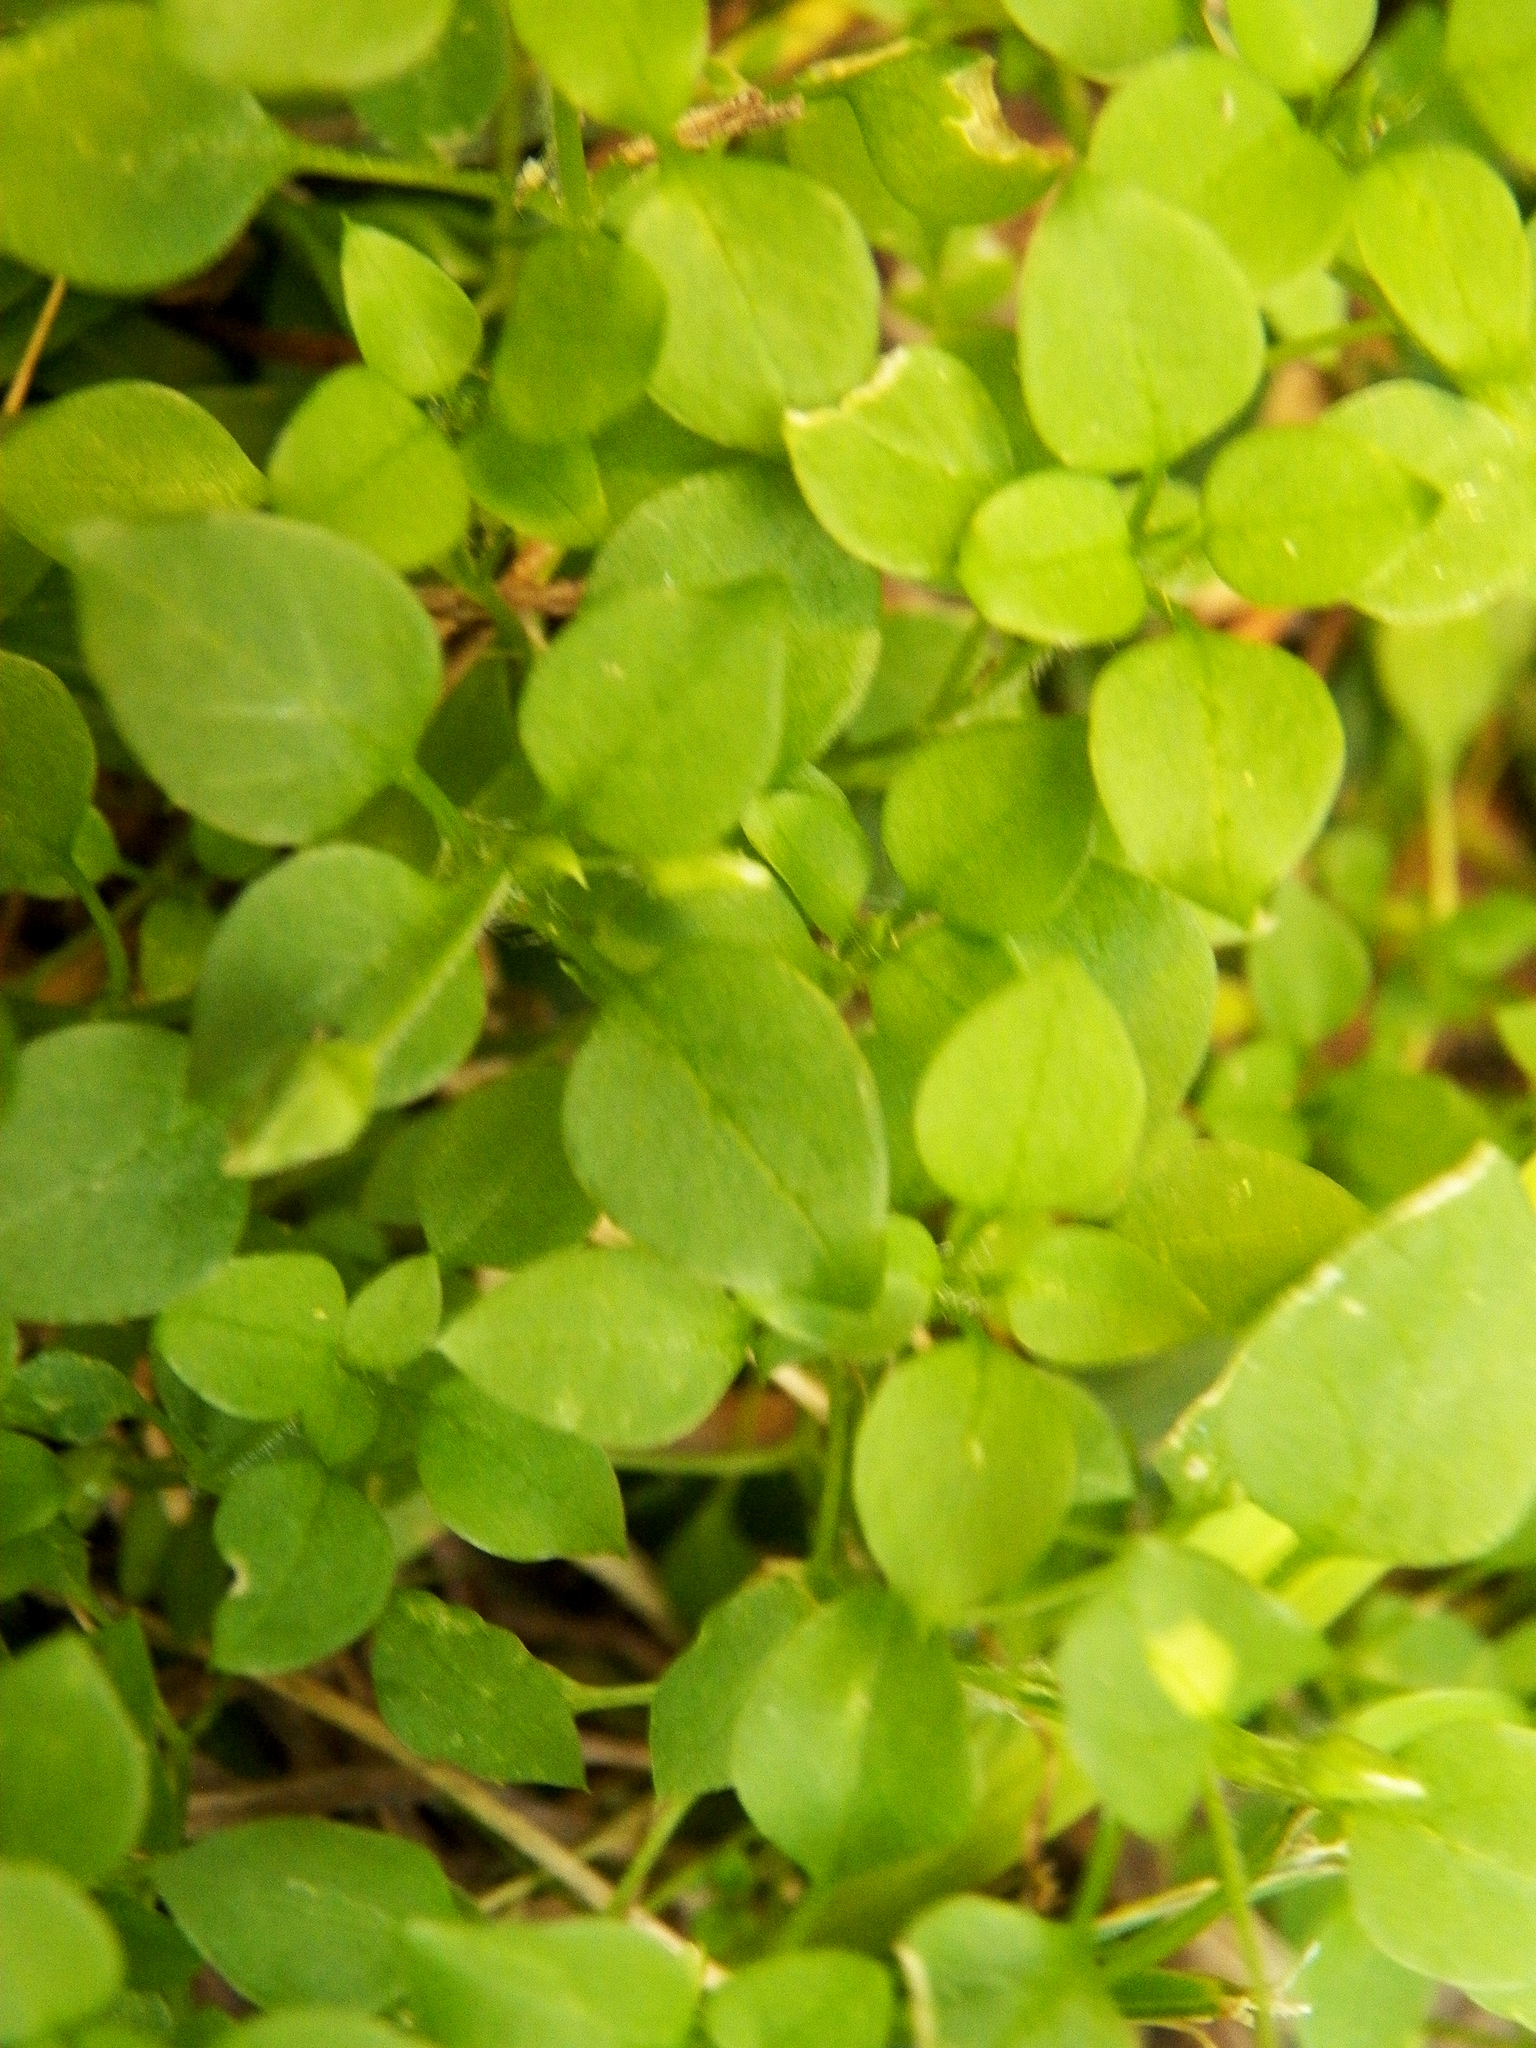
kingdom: Plantae
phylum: Tracheophyta
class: Magnoliopsida
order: Caryophyllales
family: Caryophyllaceae
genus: Stellaria
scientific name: Stellaria media
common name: Common chickweed
